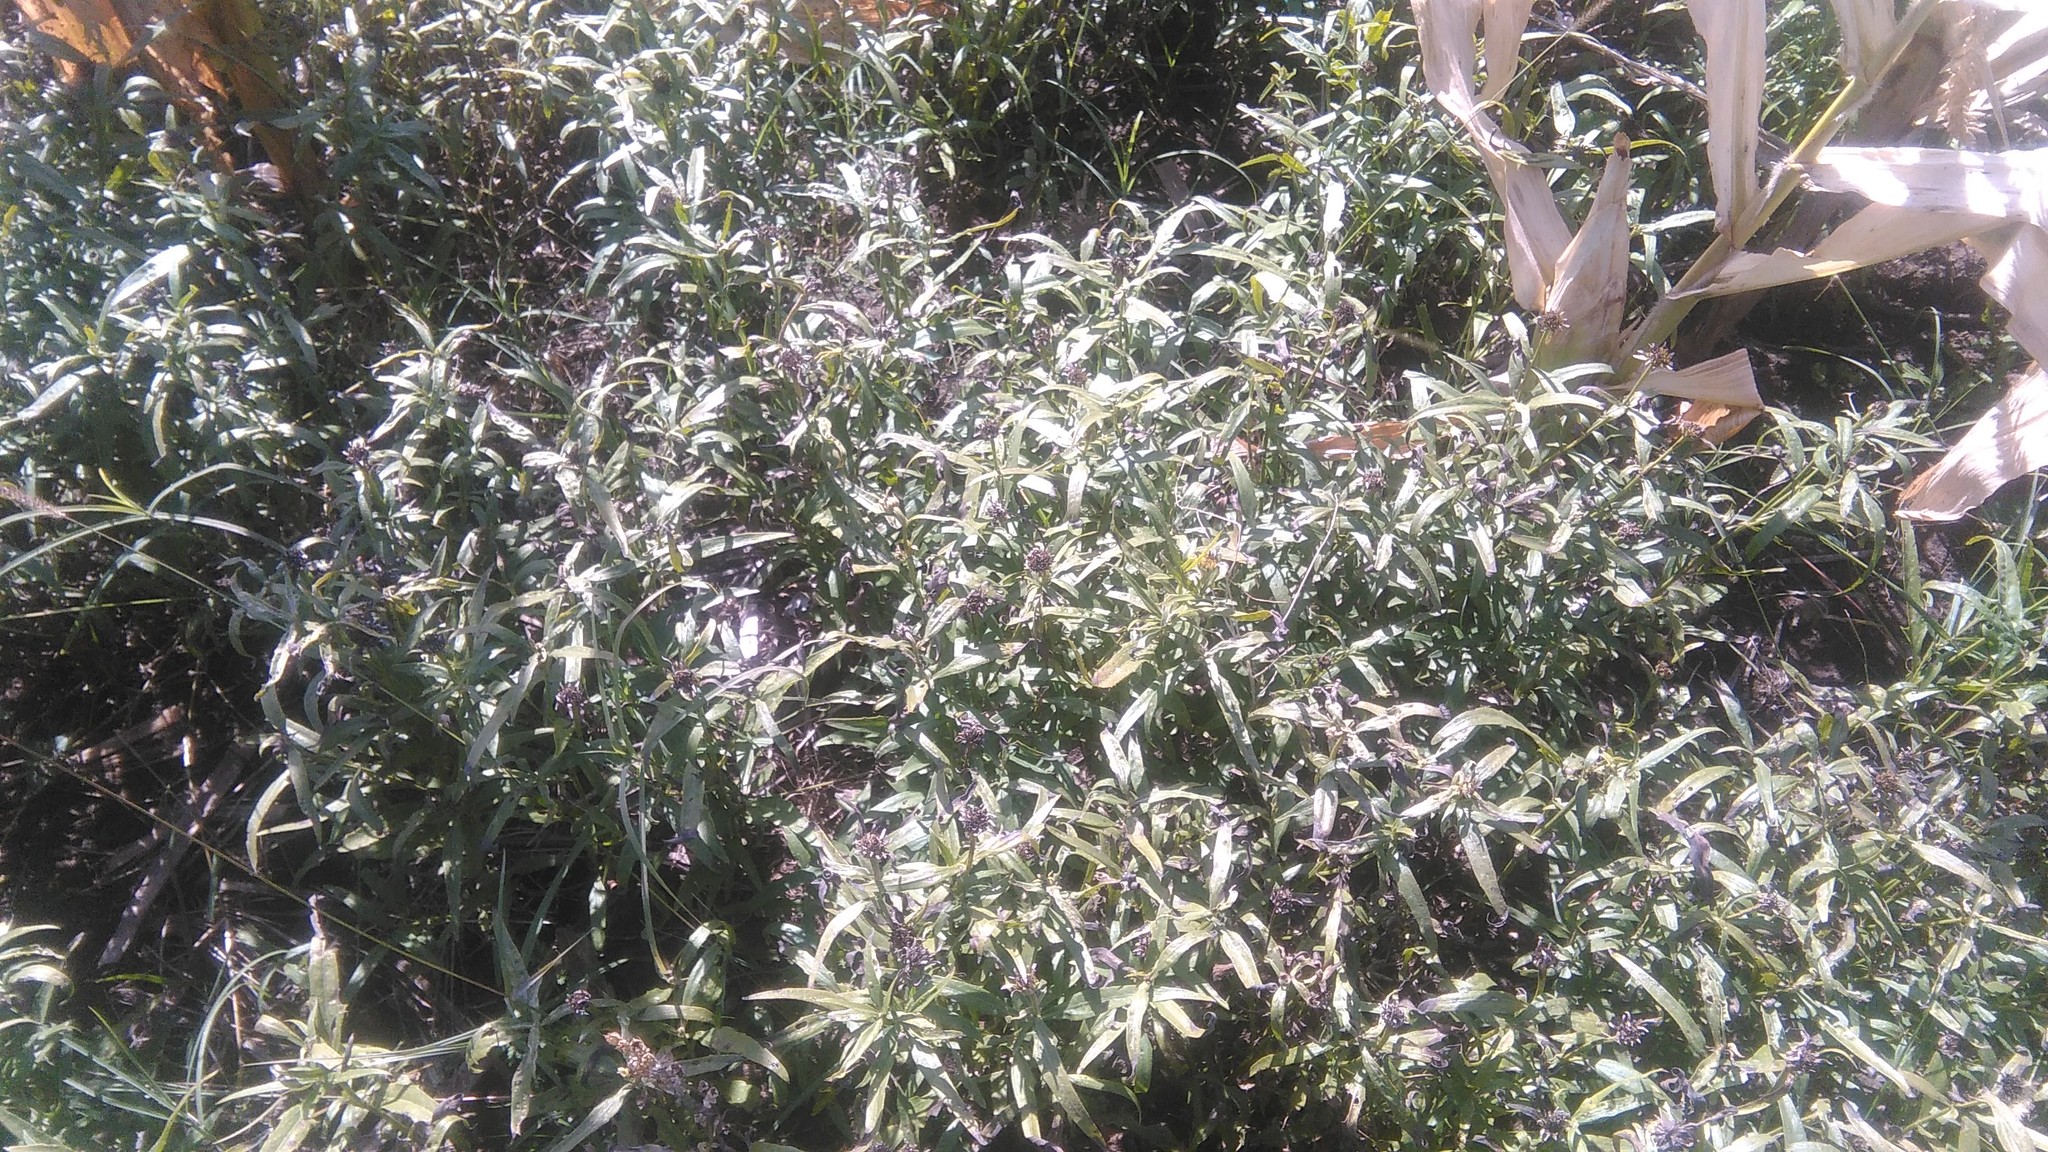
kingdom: Plantae
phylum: Tracheophyta
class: Magnoliopsida
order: Asterales
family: Asteraceae
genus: Pascalia
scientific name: Pascalia glauca
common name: Beach creeping oxeye
